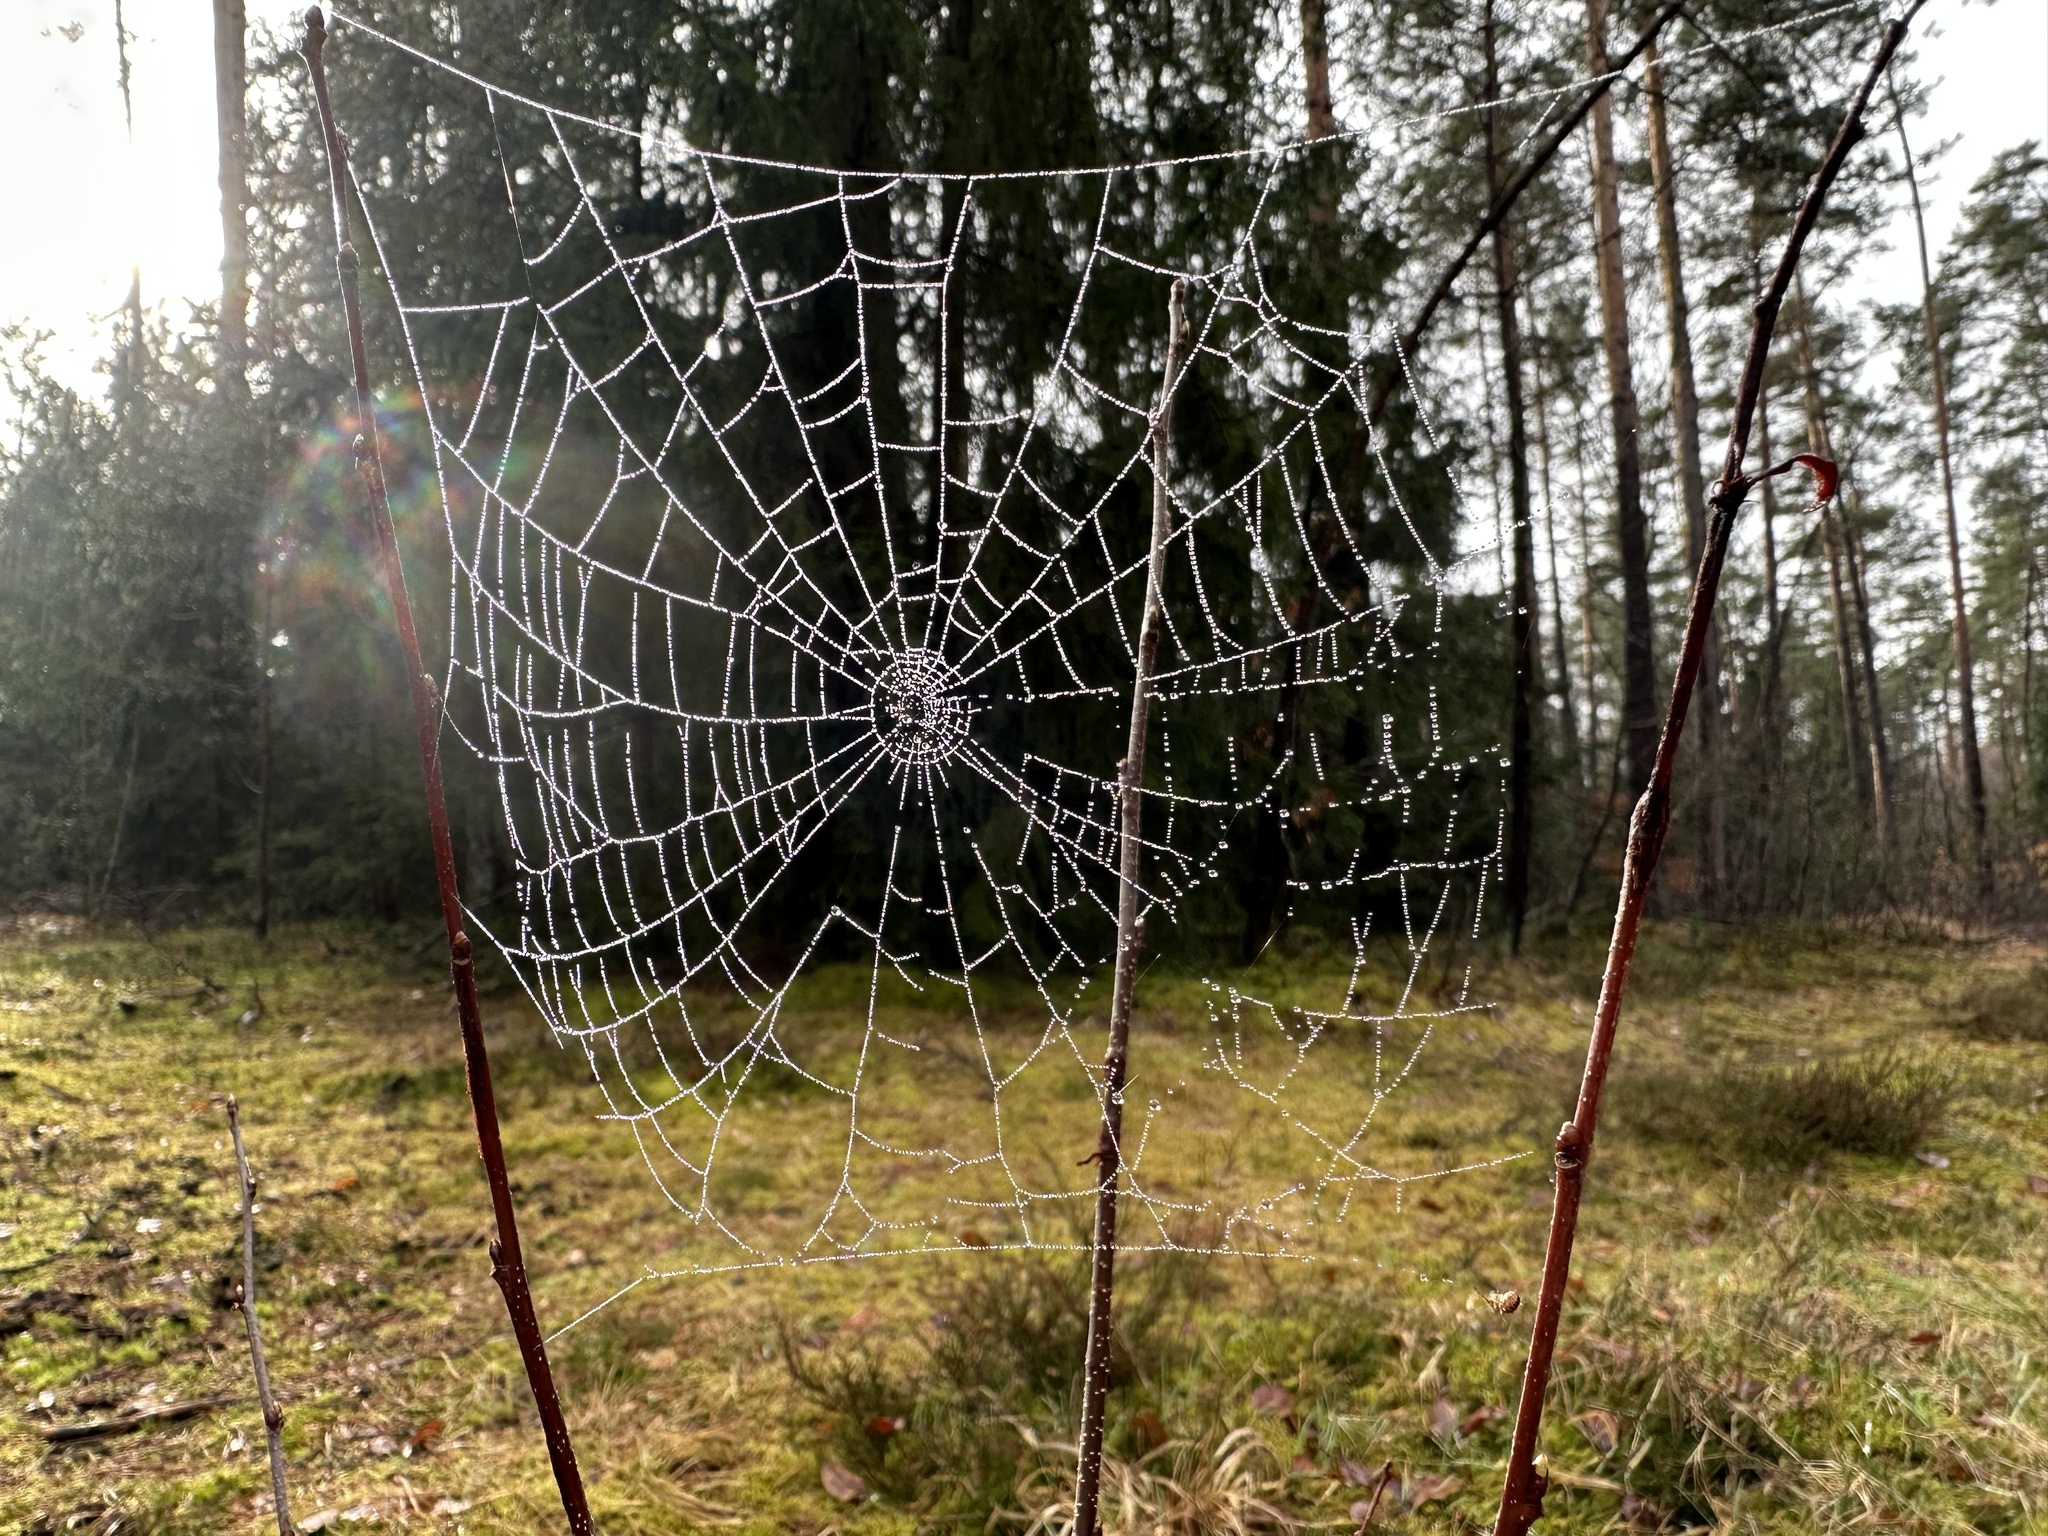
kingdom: Animalia
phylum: Arthropoda
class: Arachnida
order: Araneae
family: Araneidae
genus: Zilla
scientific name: Zilla diodia
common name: Zilla diodia
